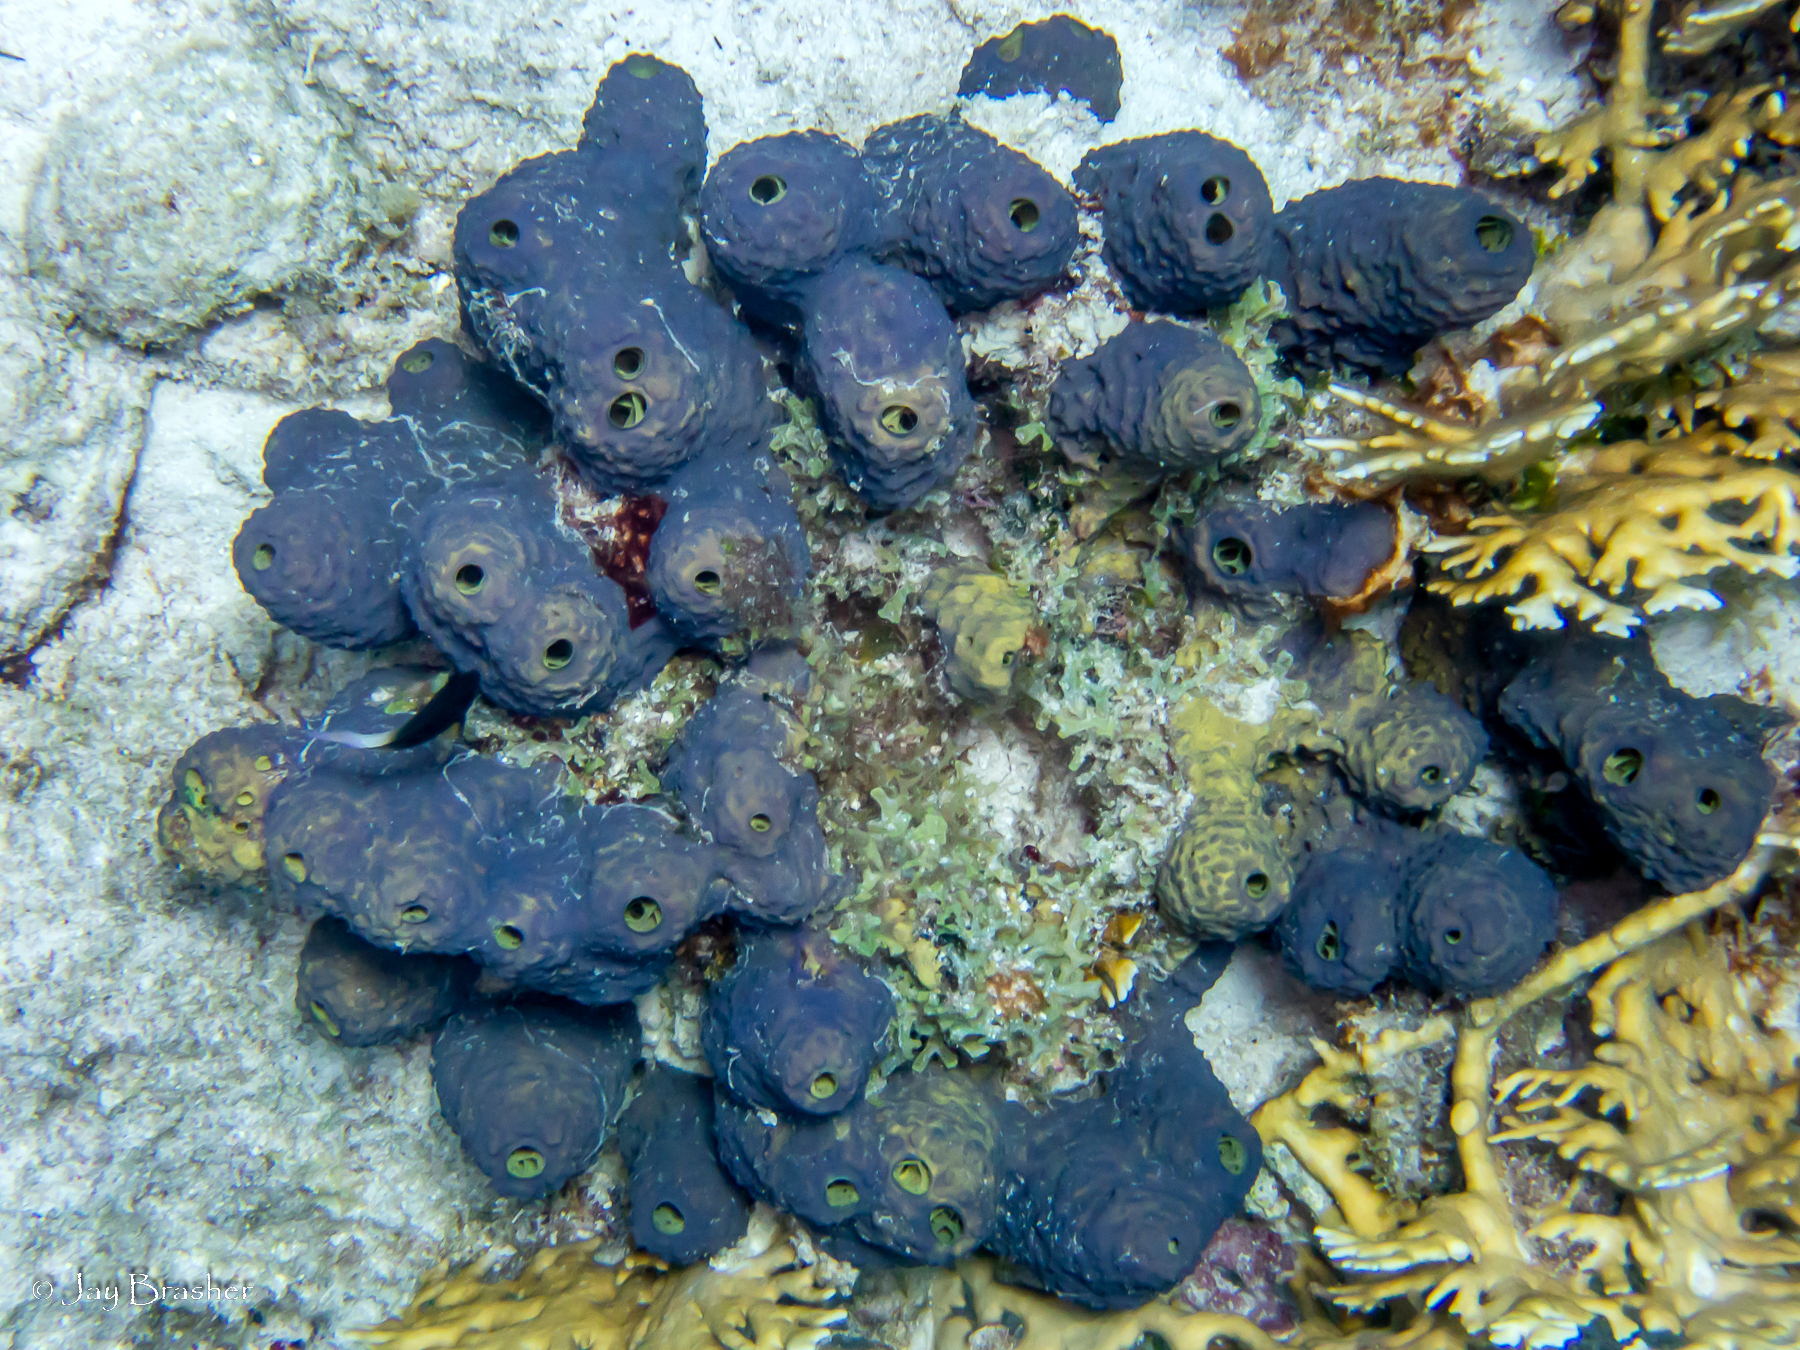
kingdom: Animalia
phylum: Porifera
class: Demospongiae
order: Verongiida
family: Aplysinidae
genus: Aiolochroia
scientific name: Aiolochroia crassa
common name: Branching tube sponge
